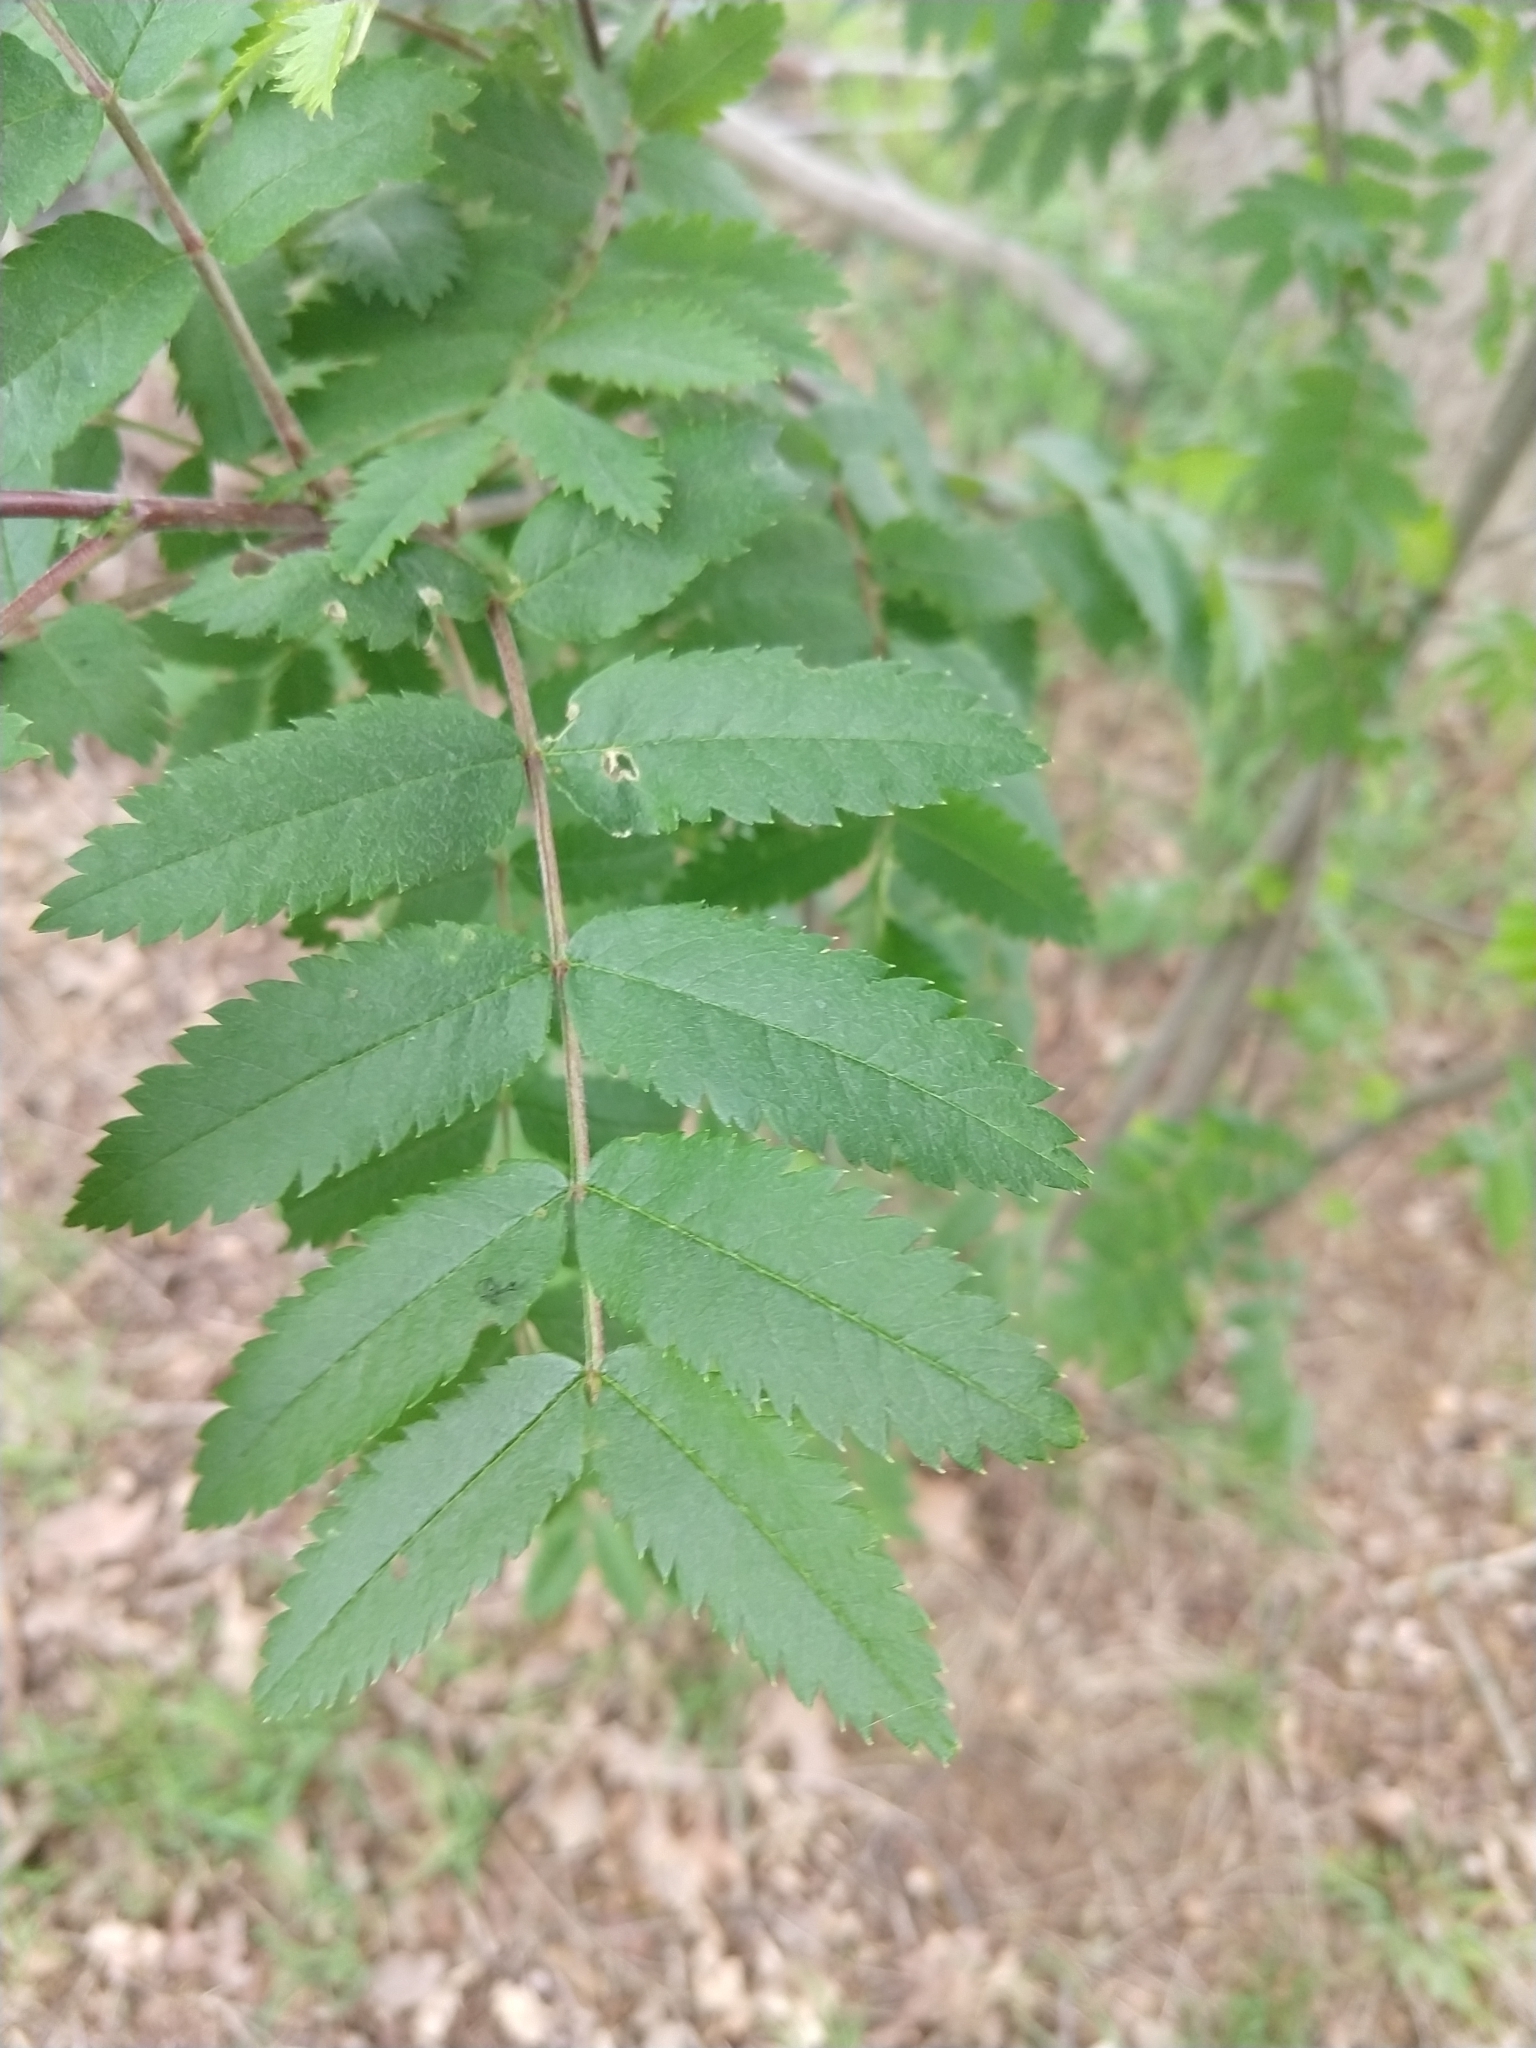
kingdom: Plantae
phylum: Tracheophyta
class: Magnoliopsida
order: Rosales
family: Rosaceae
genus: Sorbus
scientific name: Sorbus aucuparia
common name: Rowan
